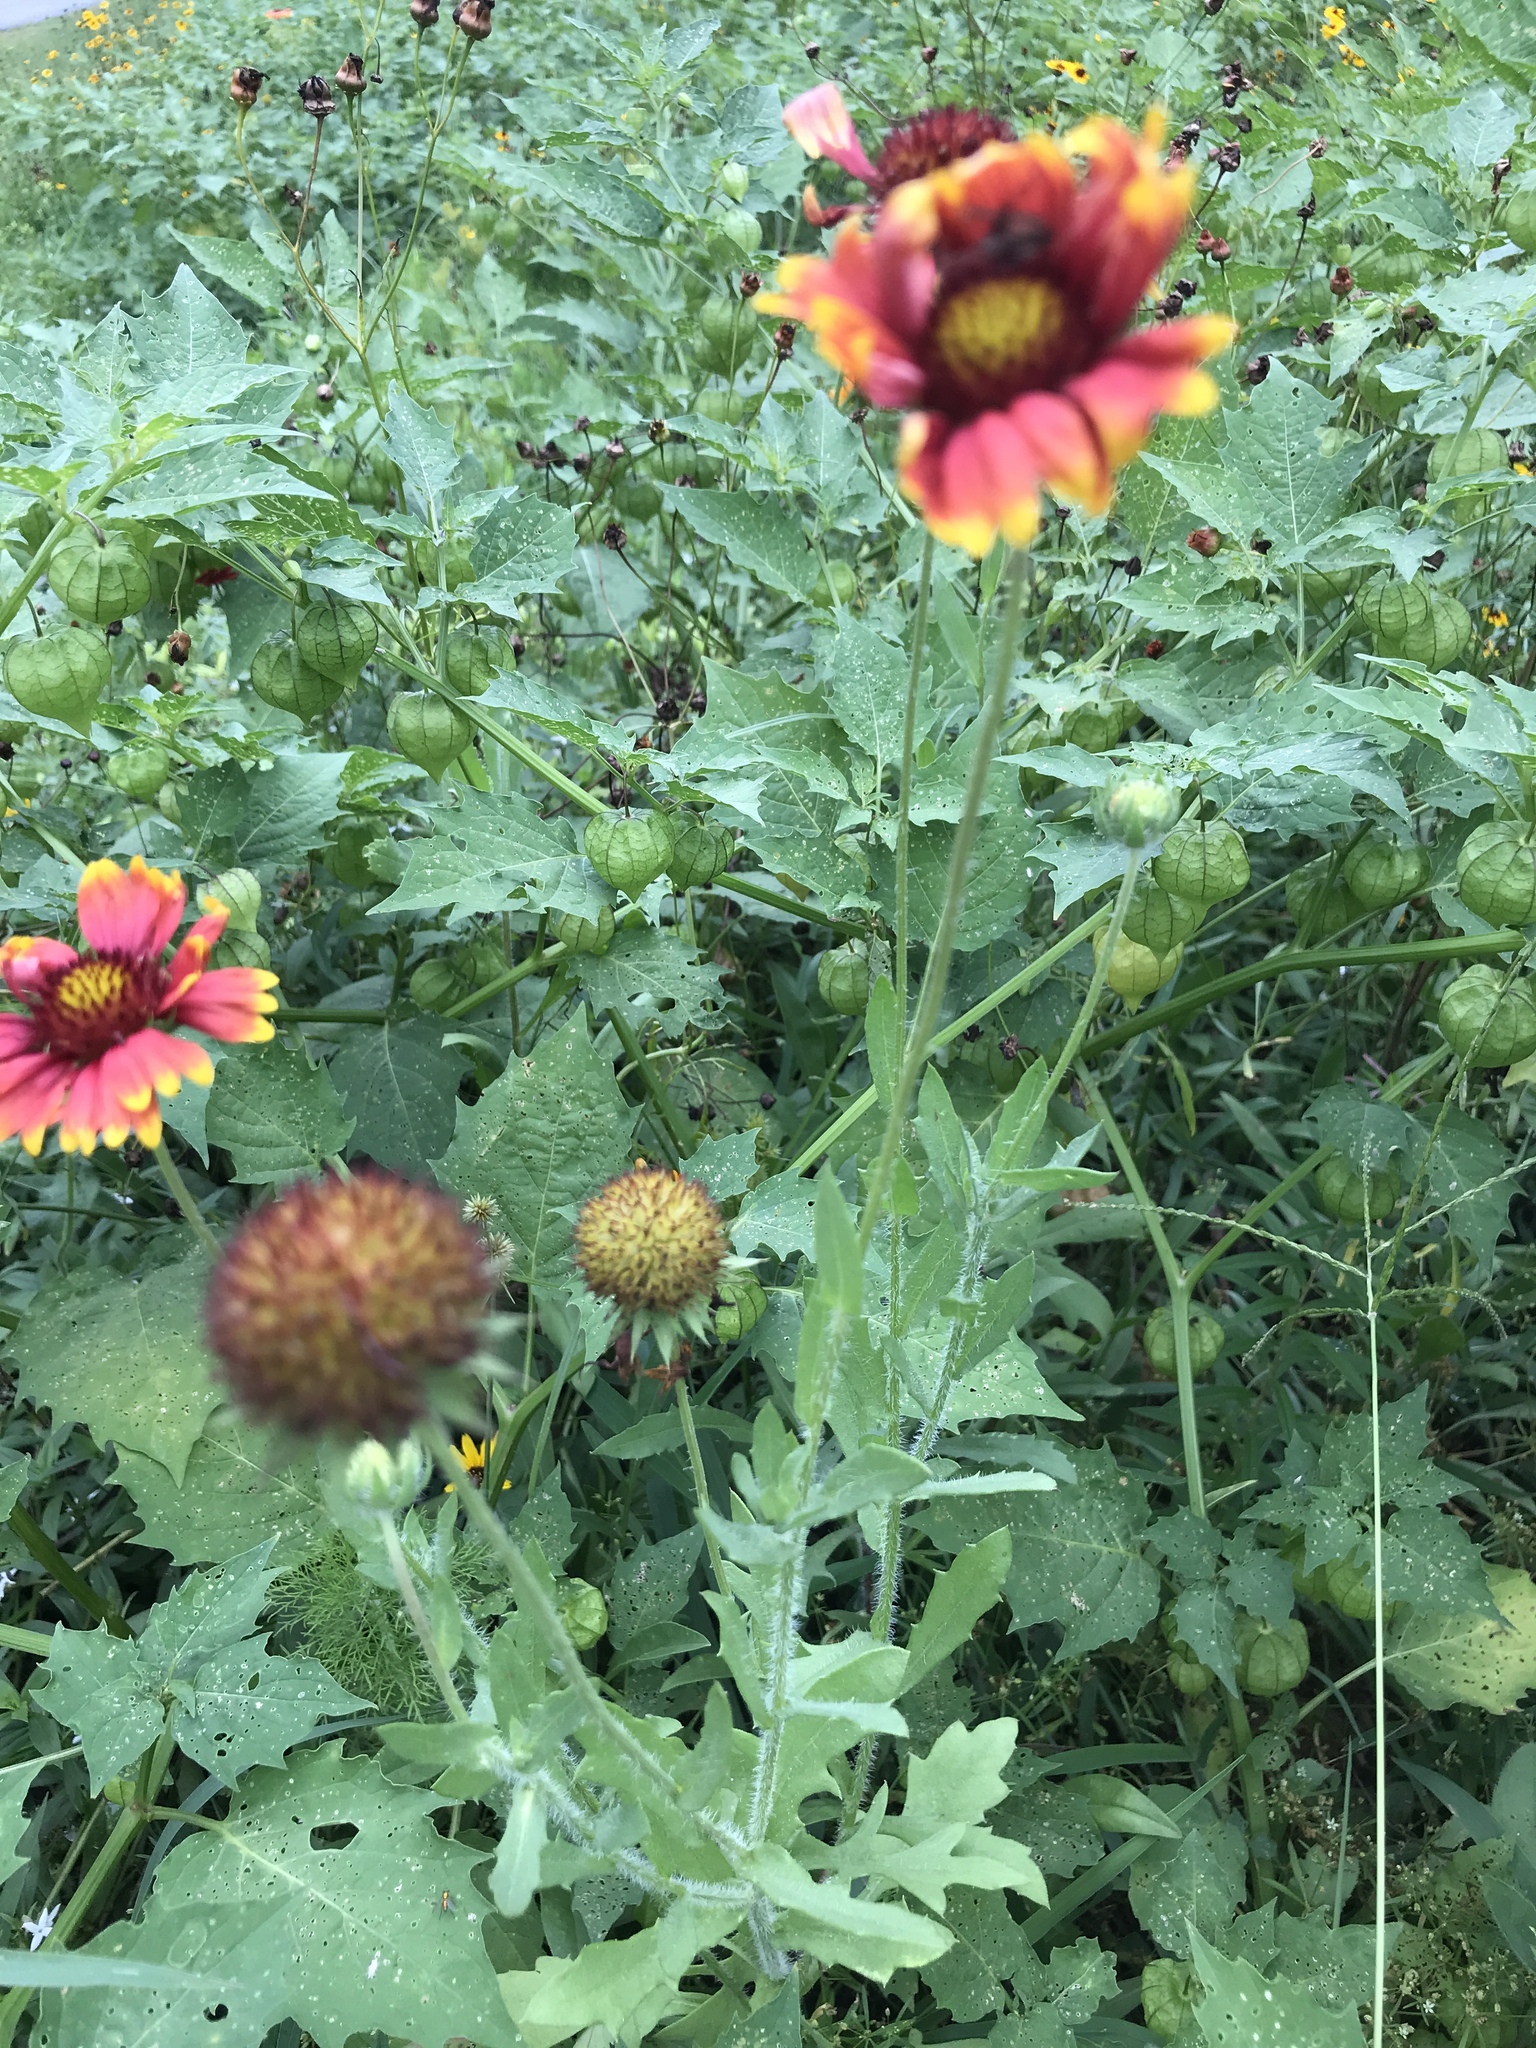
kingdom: Plantae
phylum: Tracheophyta
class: Magnoliopsida
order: Asterales
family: Asteraceae
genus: Gaillardia
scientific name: Gaillardia pulchella
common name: Firewheel
